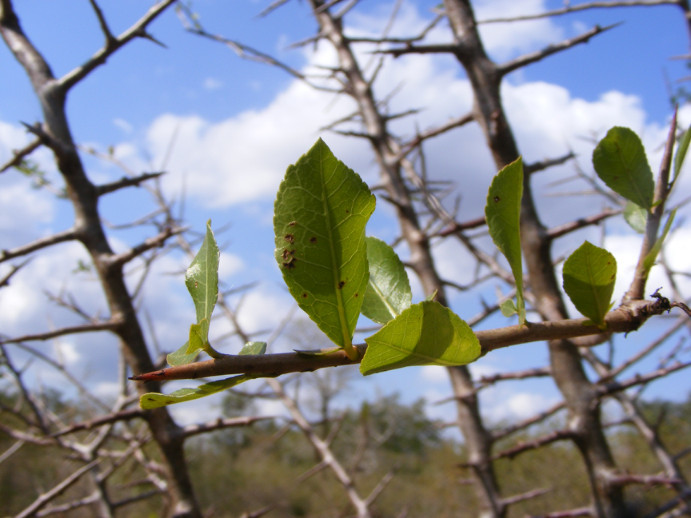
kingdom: Plantae
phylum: Tracheophyta
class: Magnoliopsida
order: Sapindales
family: Burseraceae
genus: Commiphora
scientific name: Commiphora pyracanthoides
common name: Cork tree
